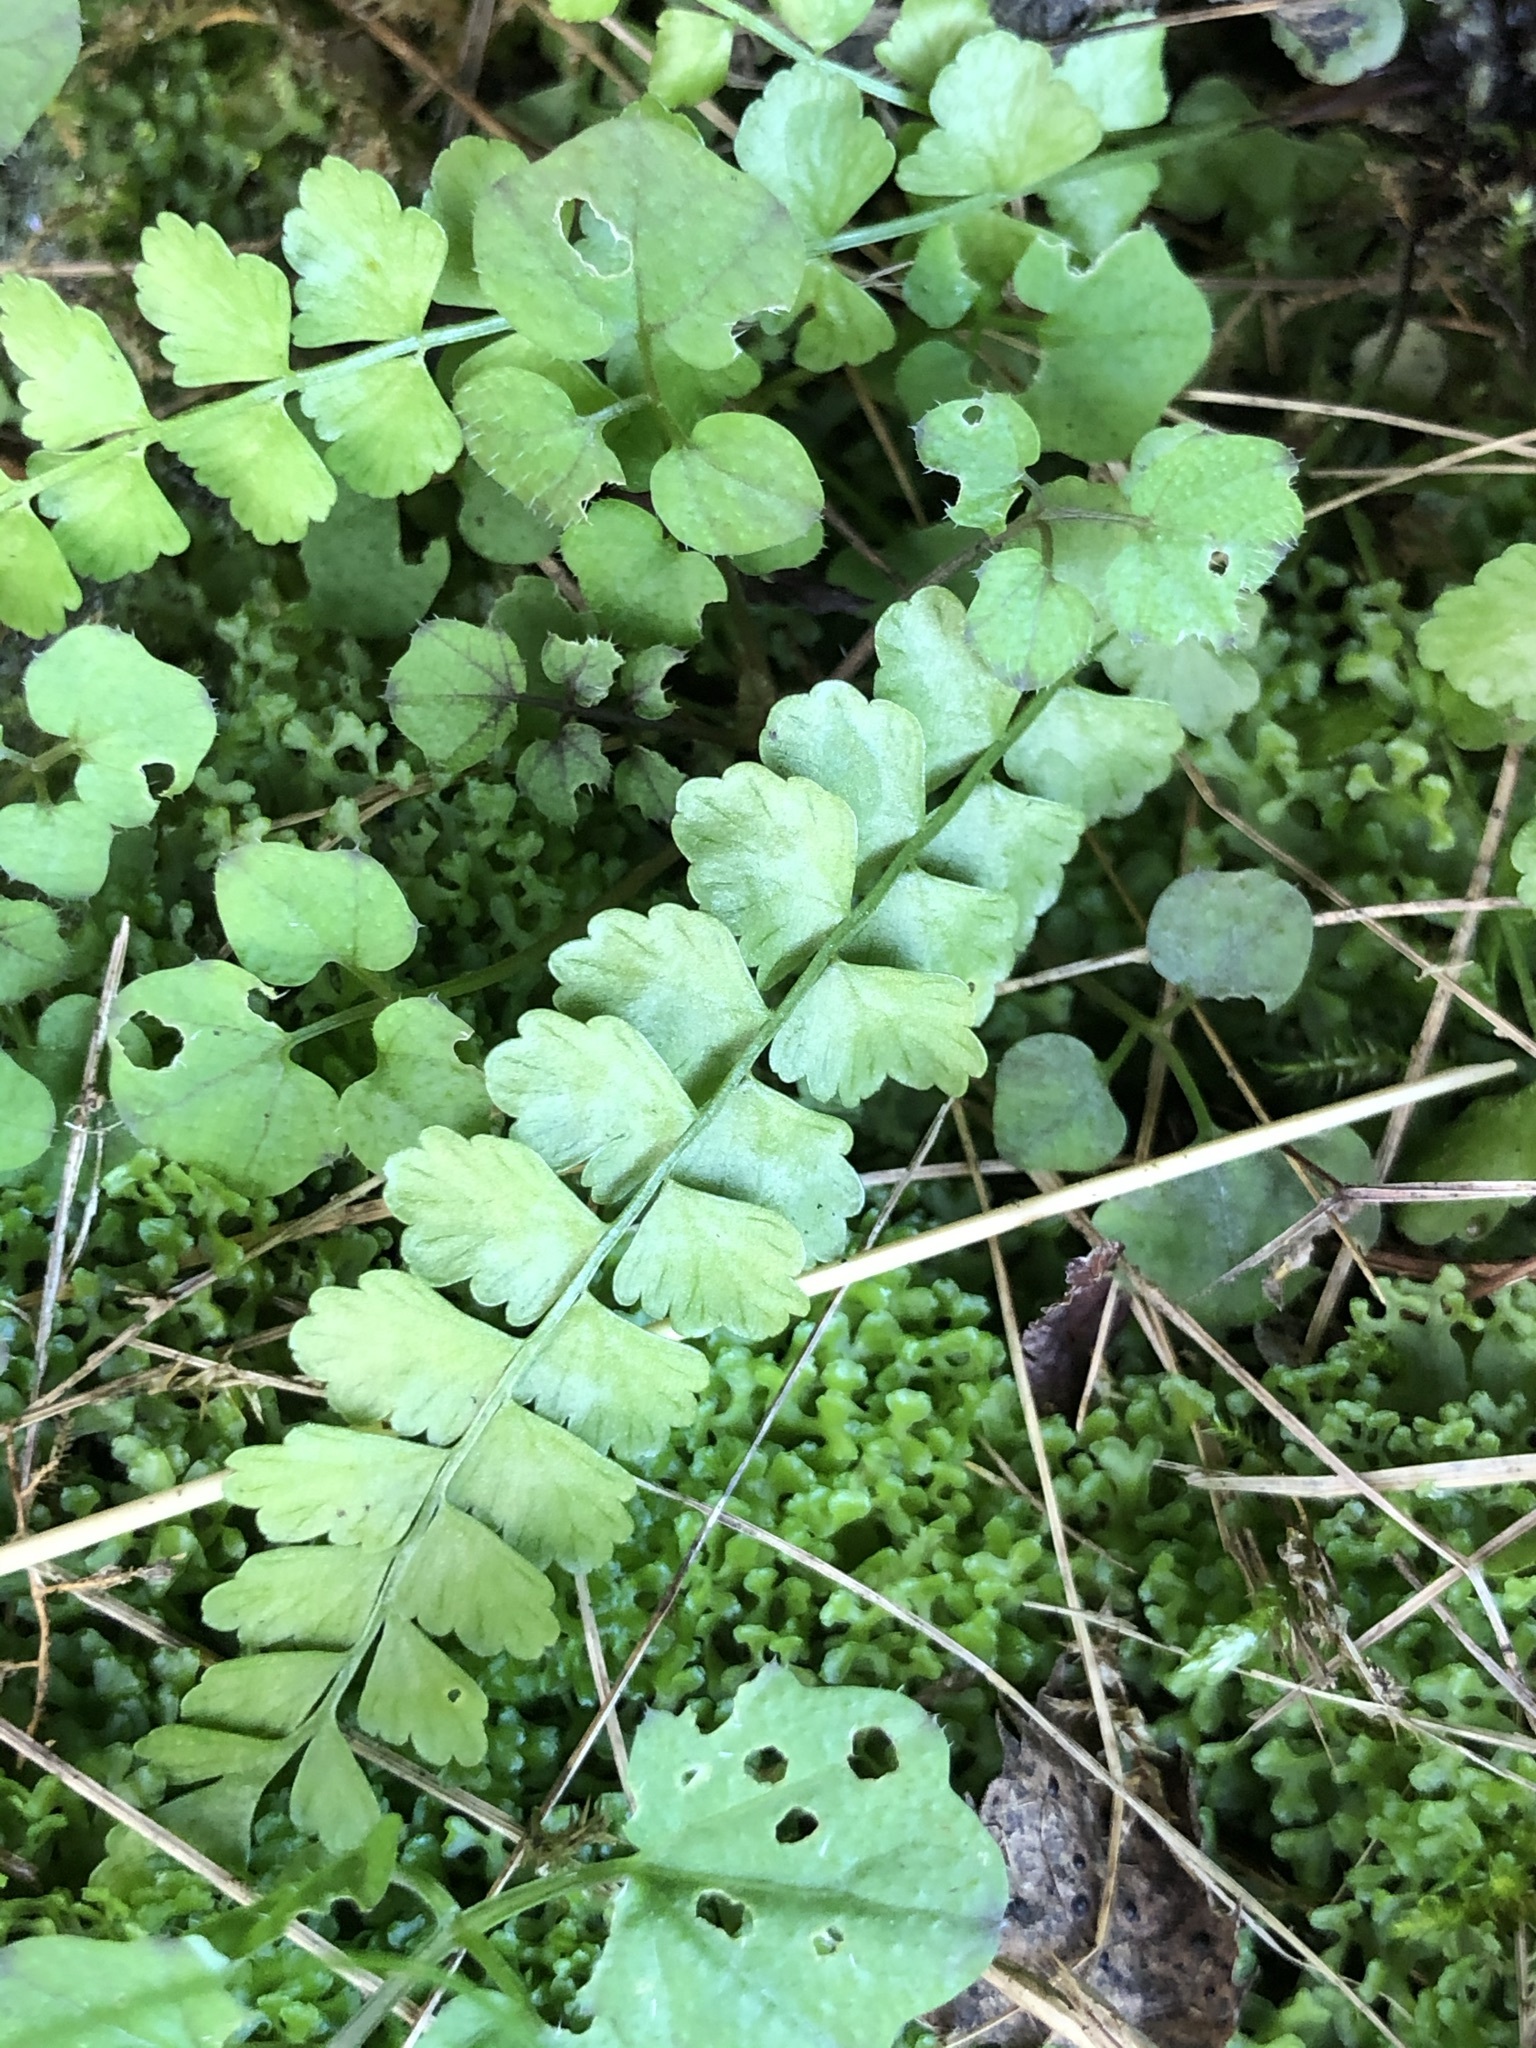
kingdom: Plantae
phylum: Tracheophyta
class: Polypodiopsida
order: Polypodiales
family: Aspleniaceae
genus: Asplenium
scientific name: Asplenium viride
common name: Green spleenwort
